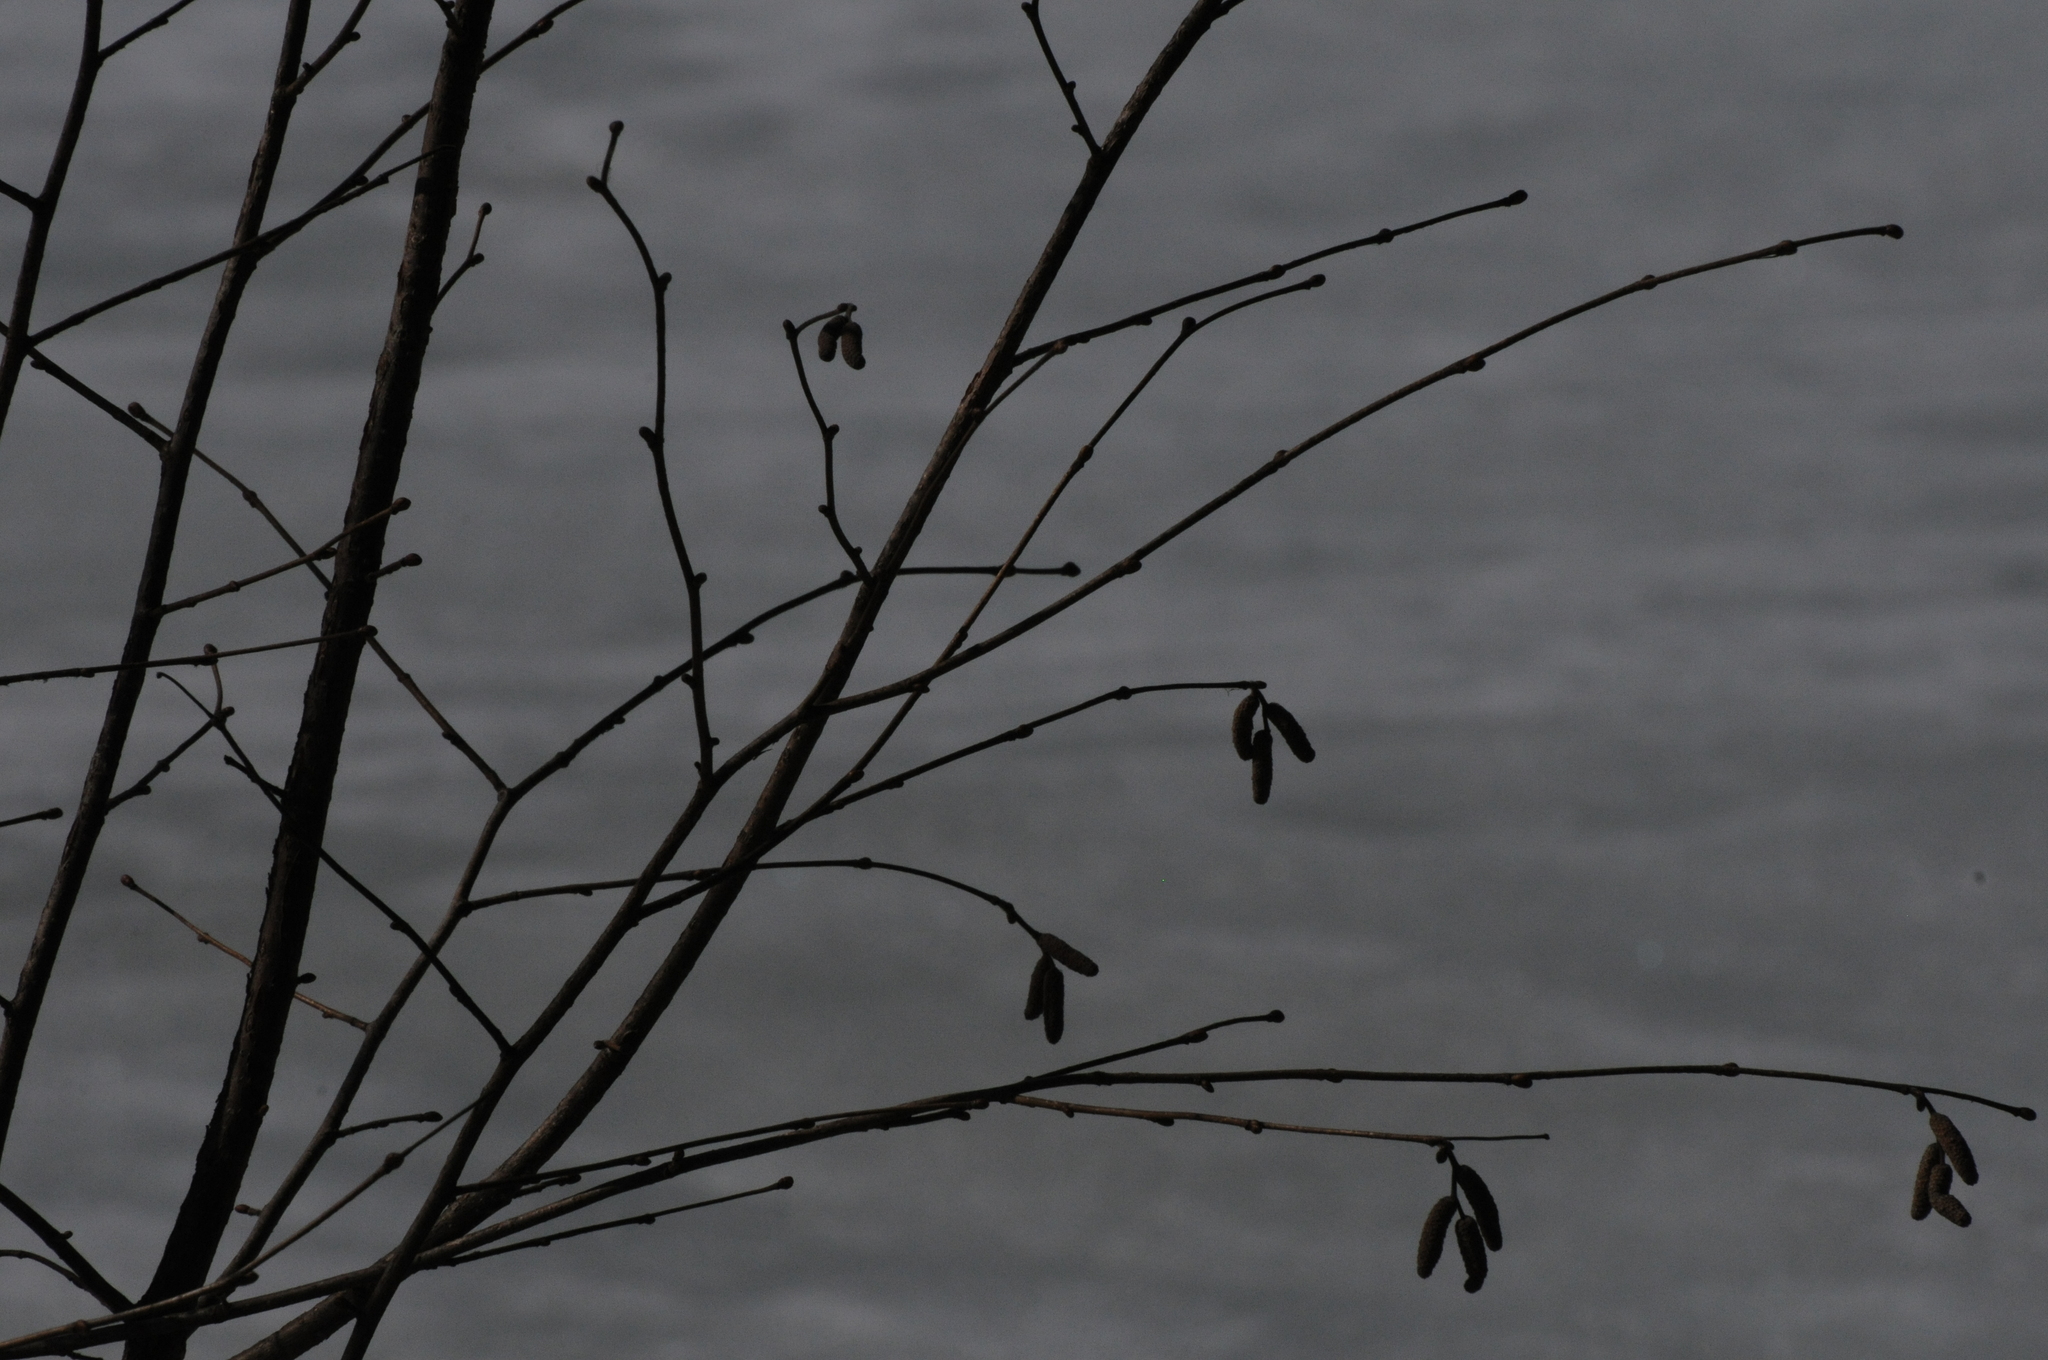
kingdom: Plantae
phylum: Tracheophyta
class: Magnoliopsida
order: Fagales
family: Betulaceae
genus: Corylus
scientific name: Corylus avellana
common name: European hazel
